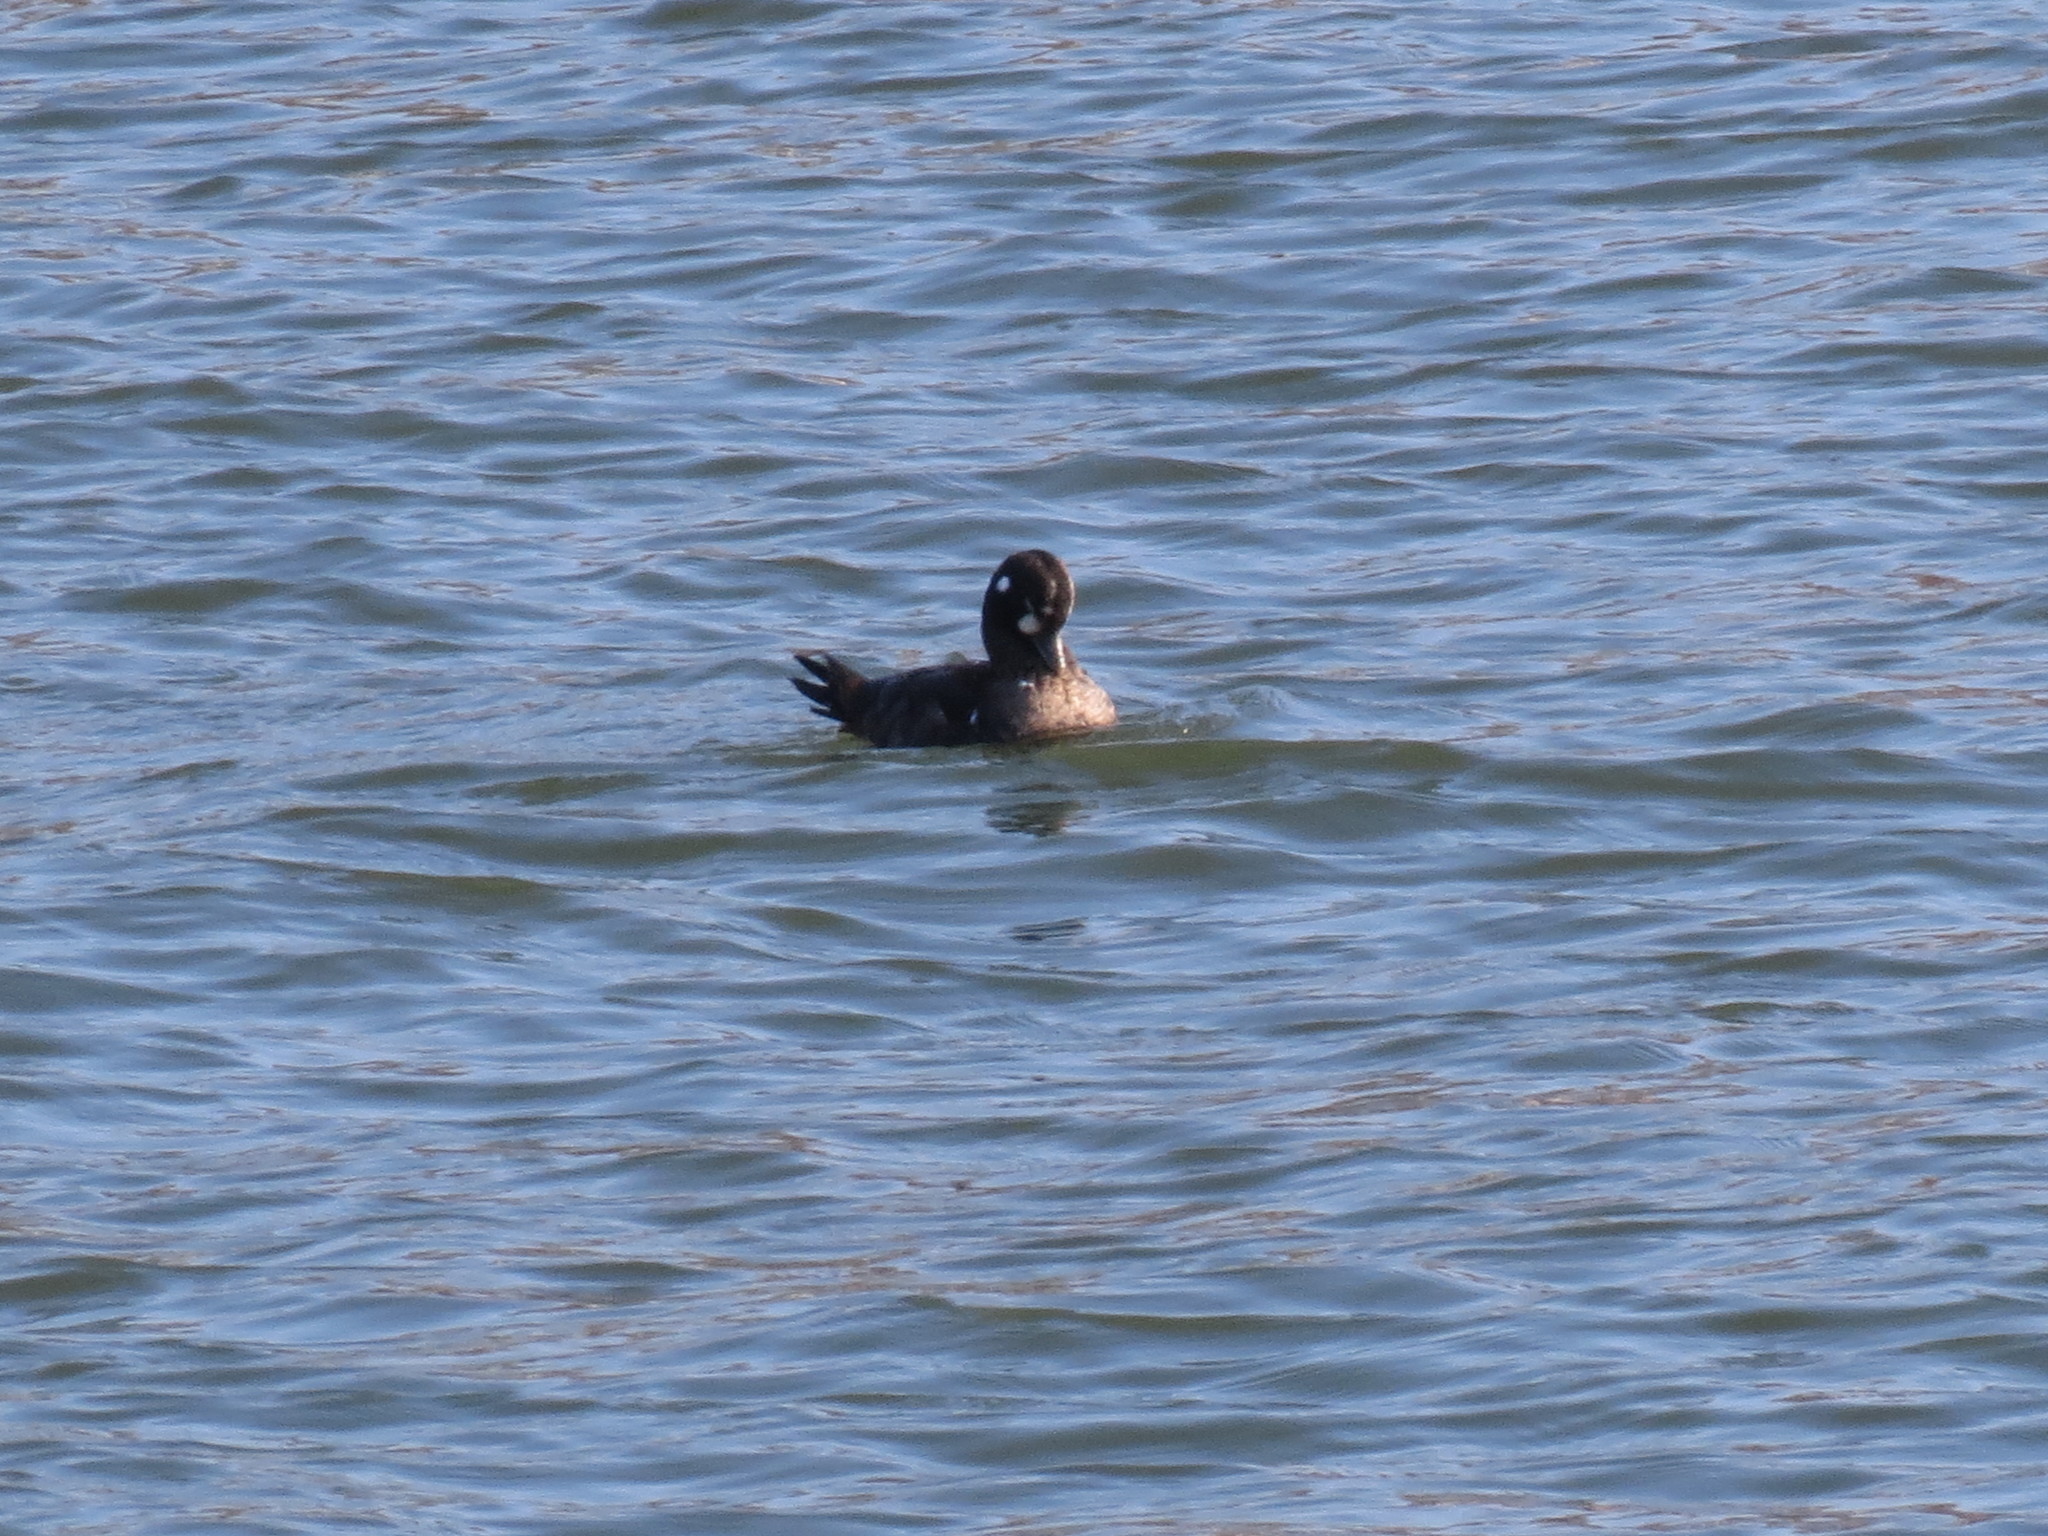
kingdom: Animalia
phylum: Chordata
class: Aves
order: Anseriformes
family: Anatidae
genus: Histrionicus
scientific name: Histrionicus histrionicus
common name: Harlequin duck
